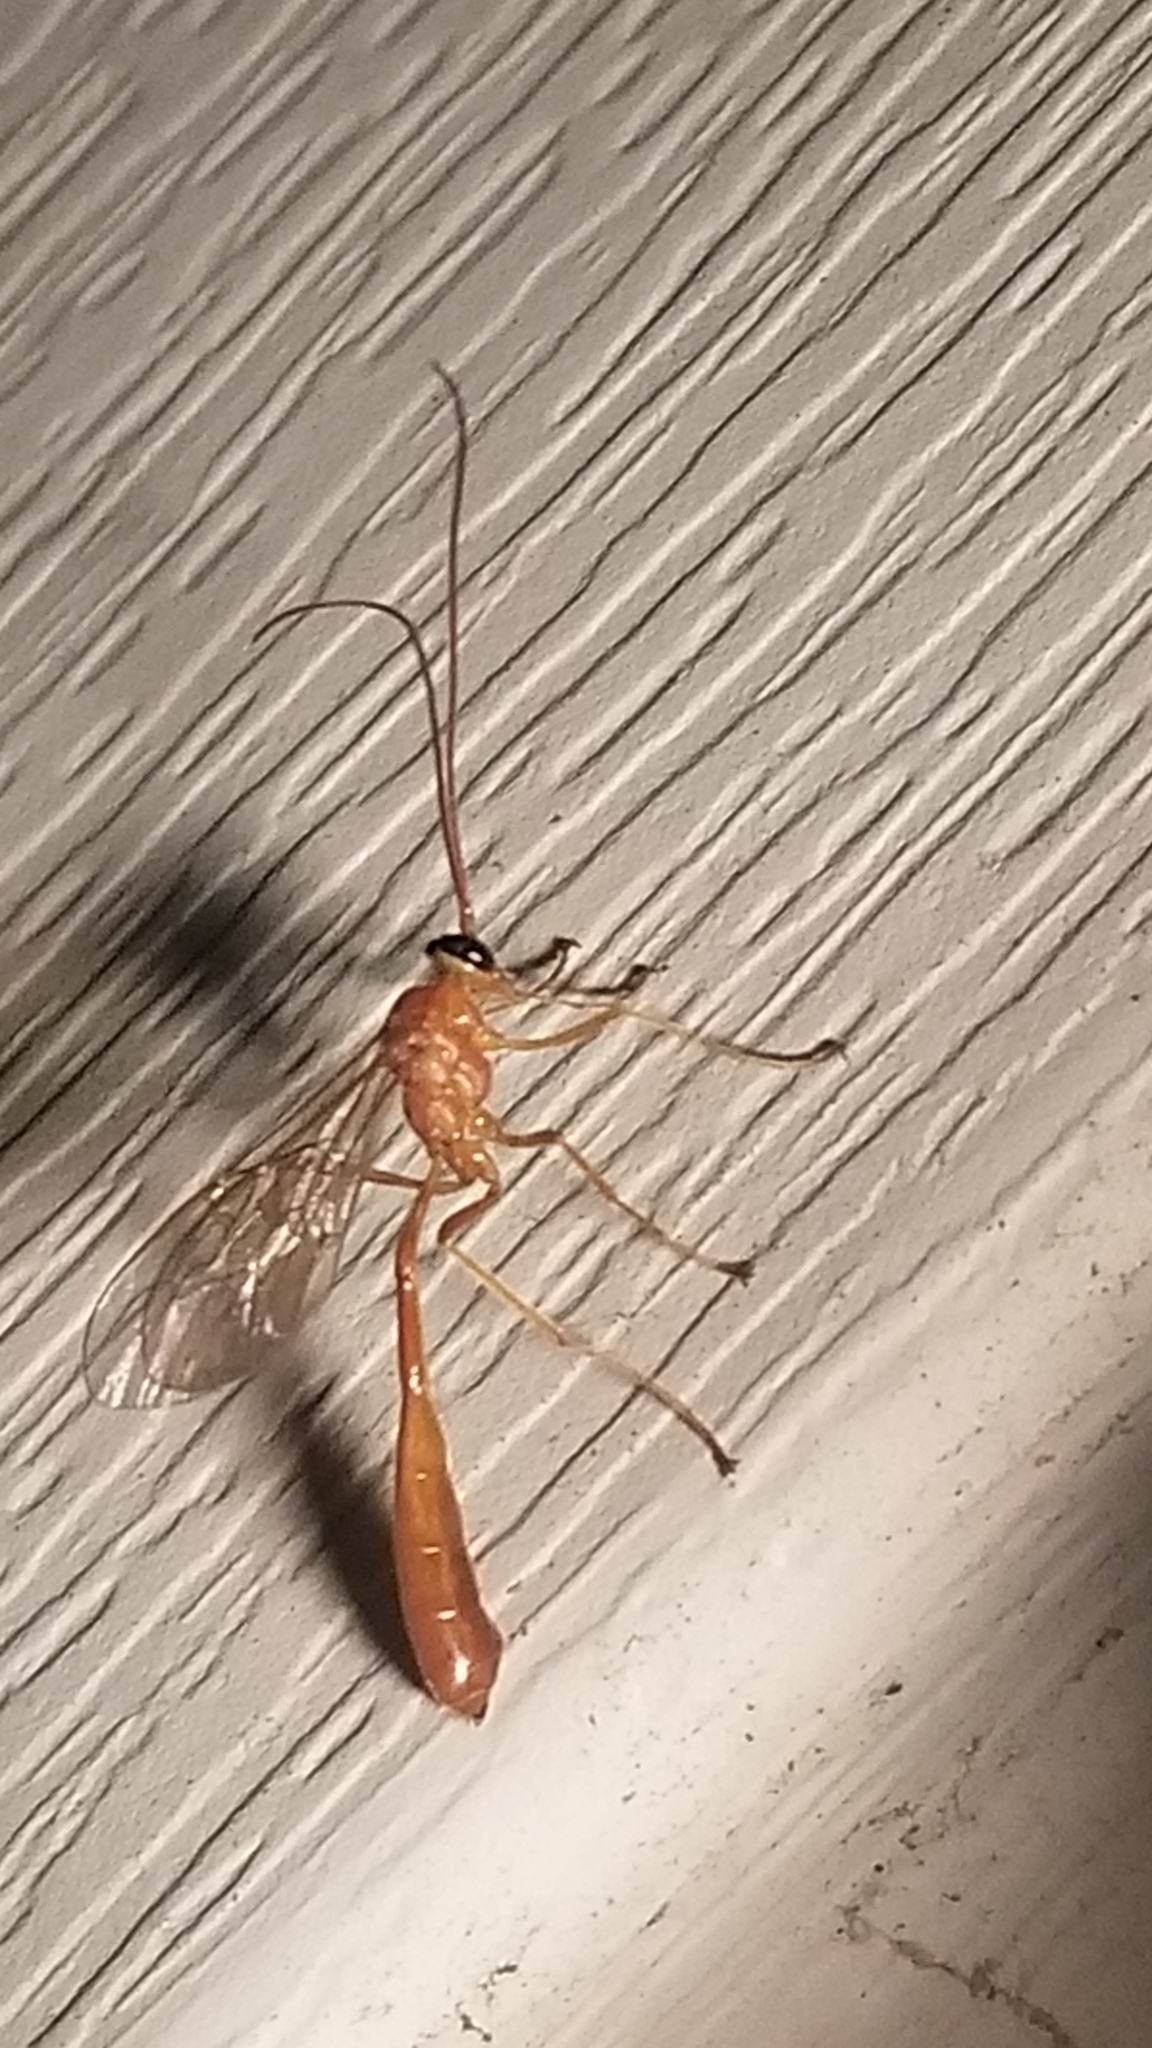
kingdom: Animalia
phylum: Arthropoda
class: Insecta
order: Hymenoptera
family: Ichneumonidae
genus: Enicospilus
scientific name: Enicospilus purgatus
